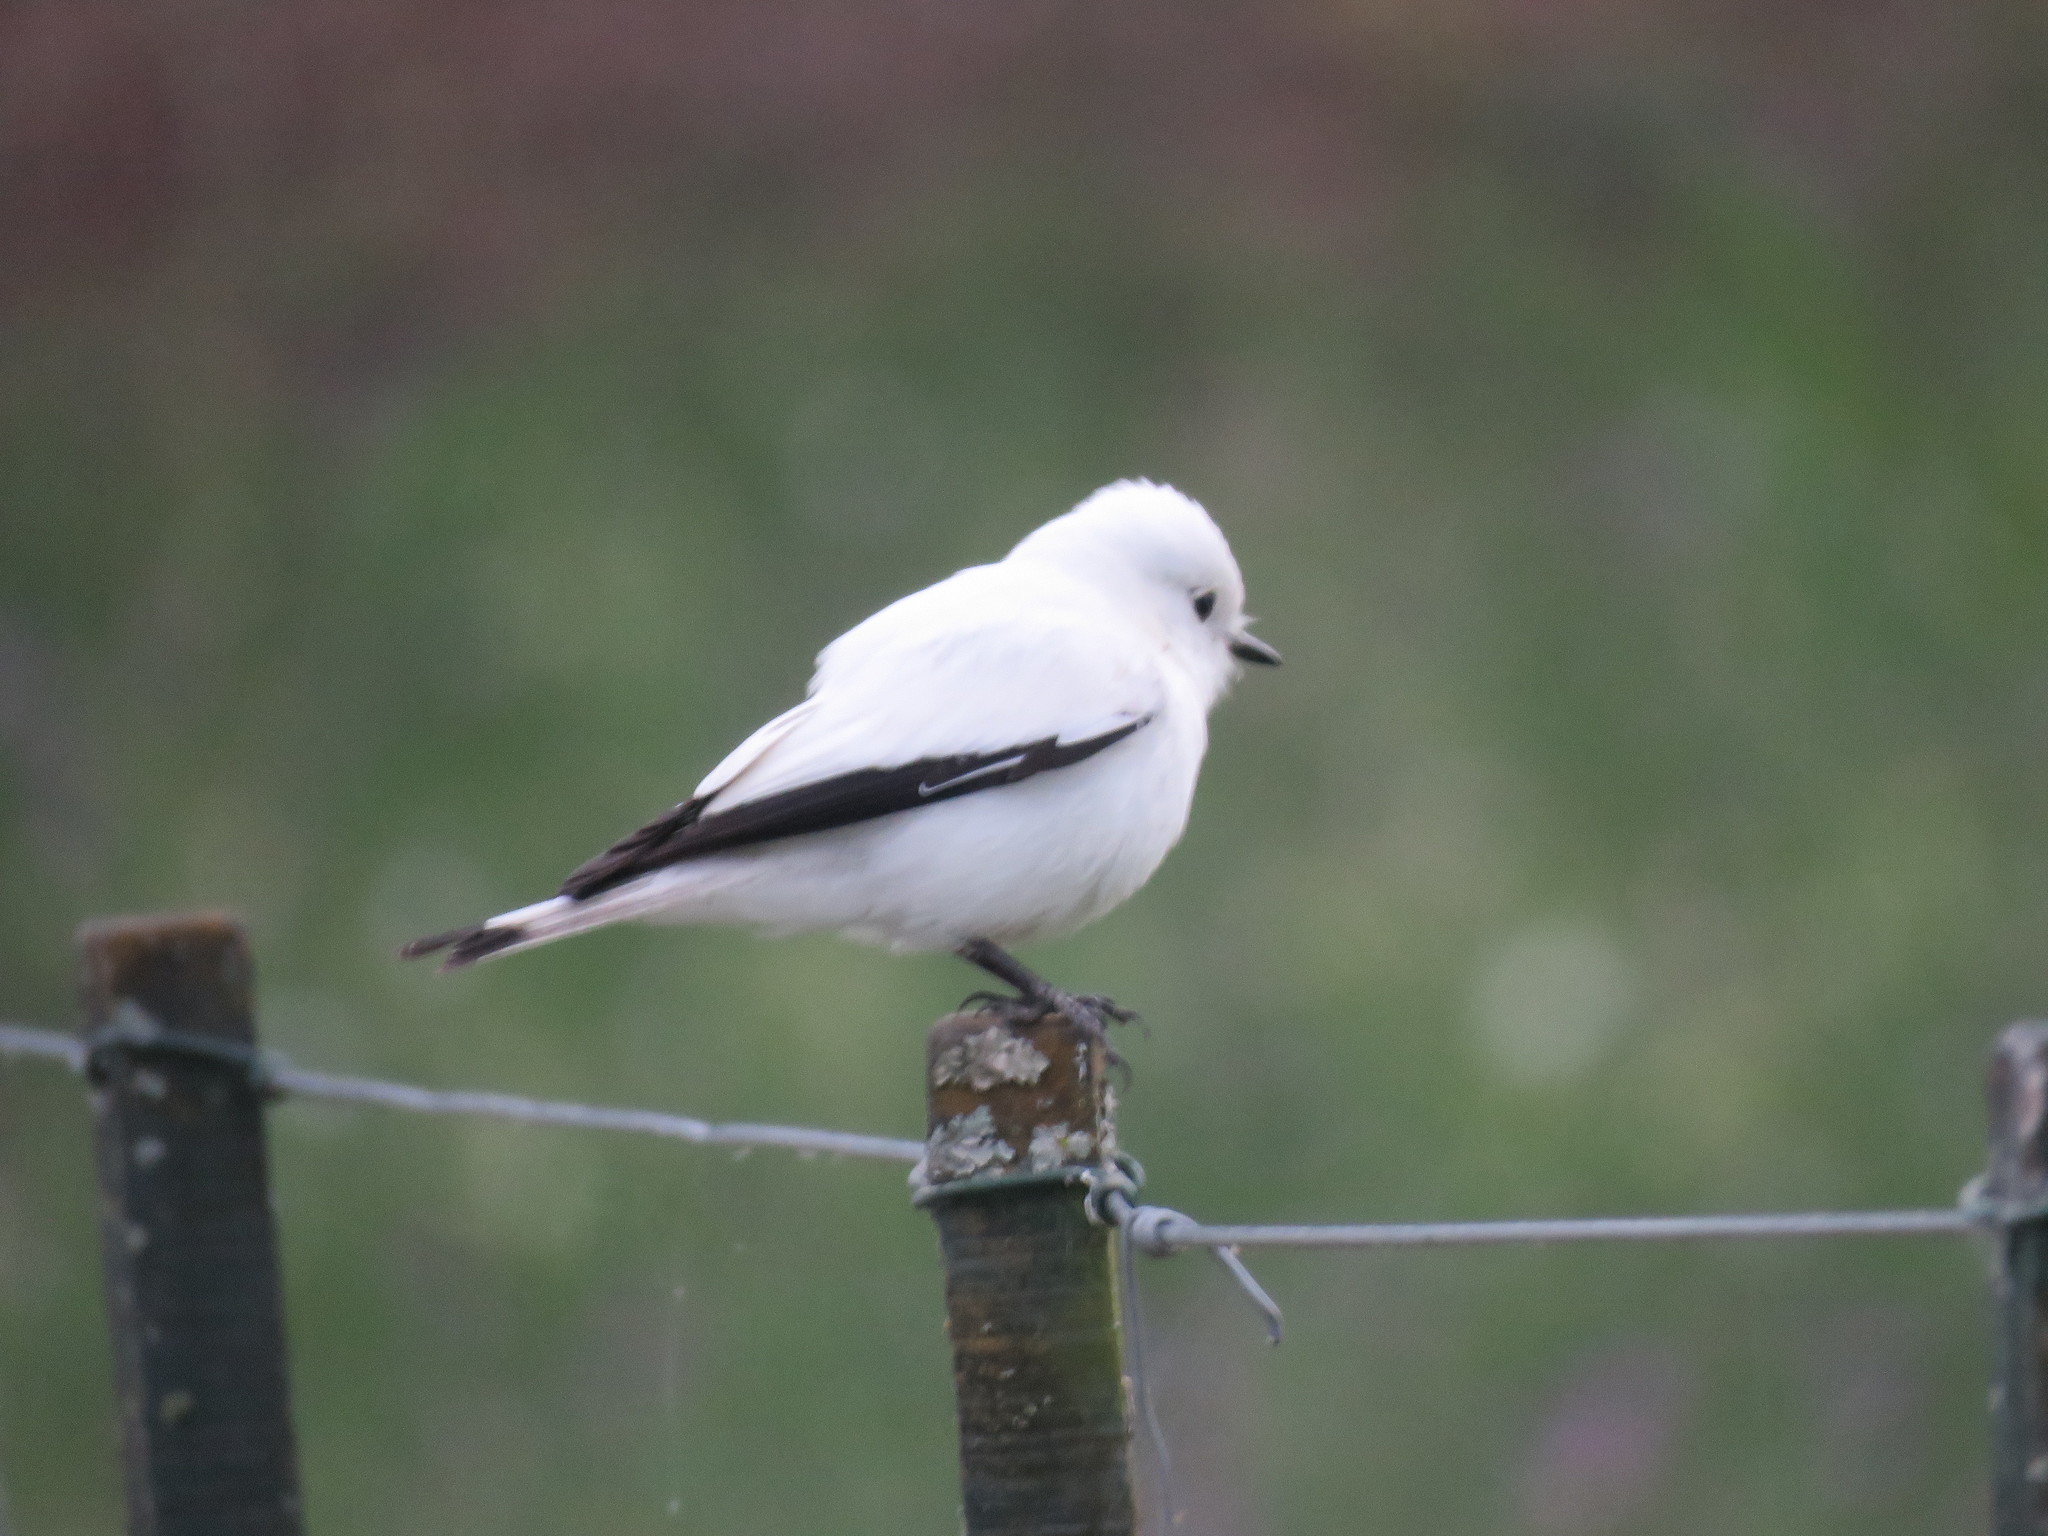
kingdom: Animalia
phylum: Chordata
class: Aves
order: Passeriformes
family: Tyrannidae
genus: Xolmis
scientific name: Xolmis irupero
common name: White monjita
